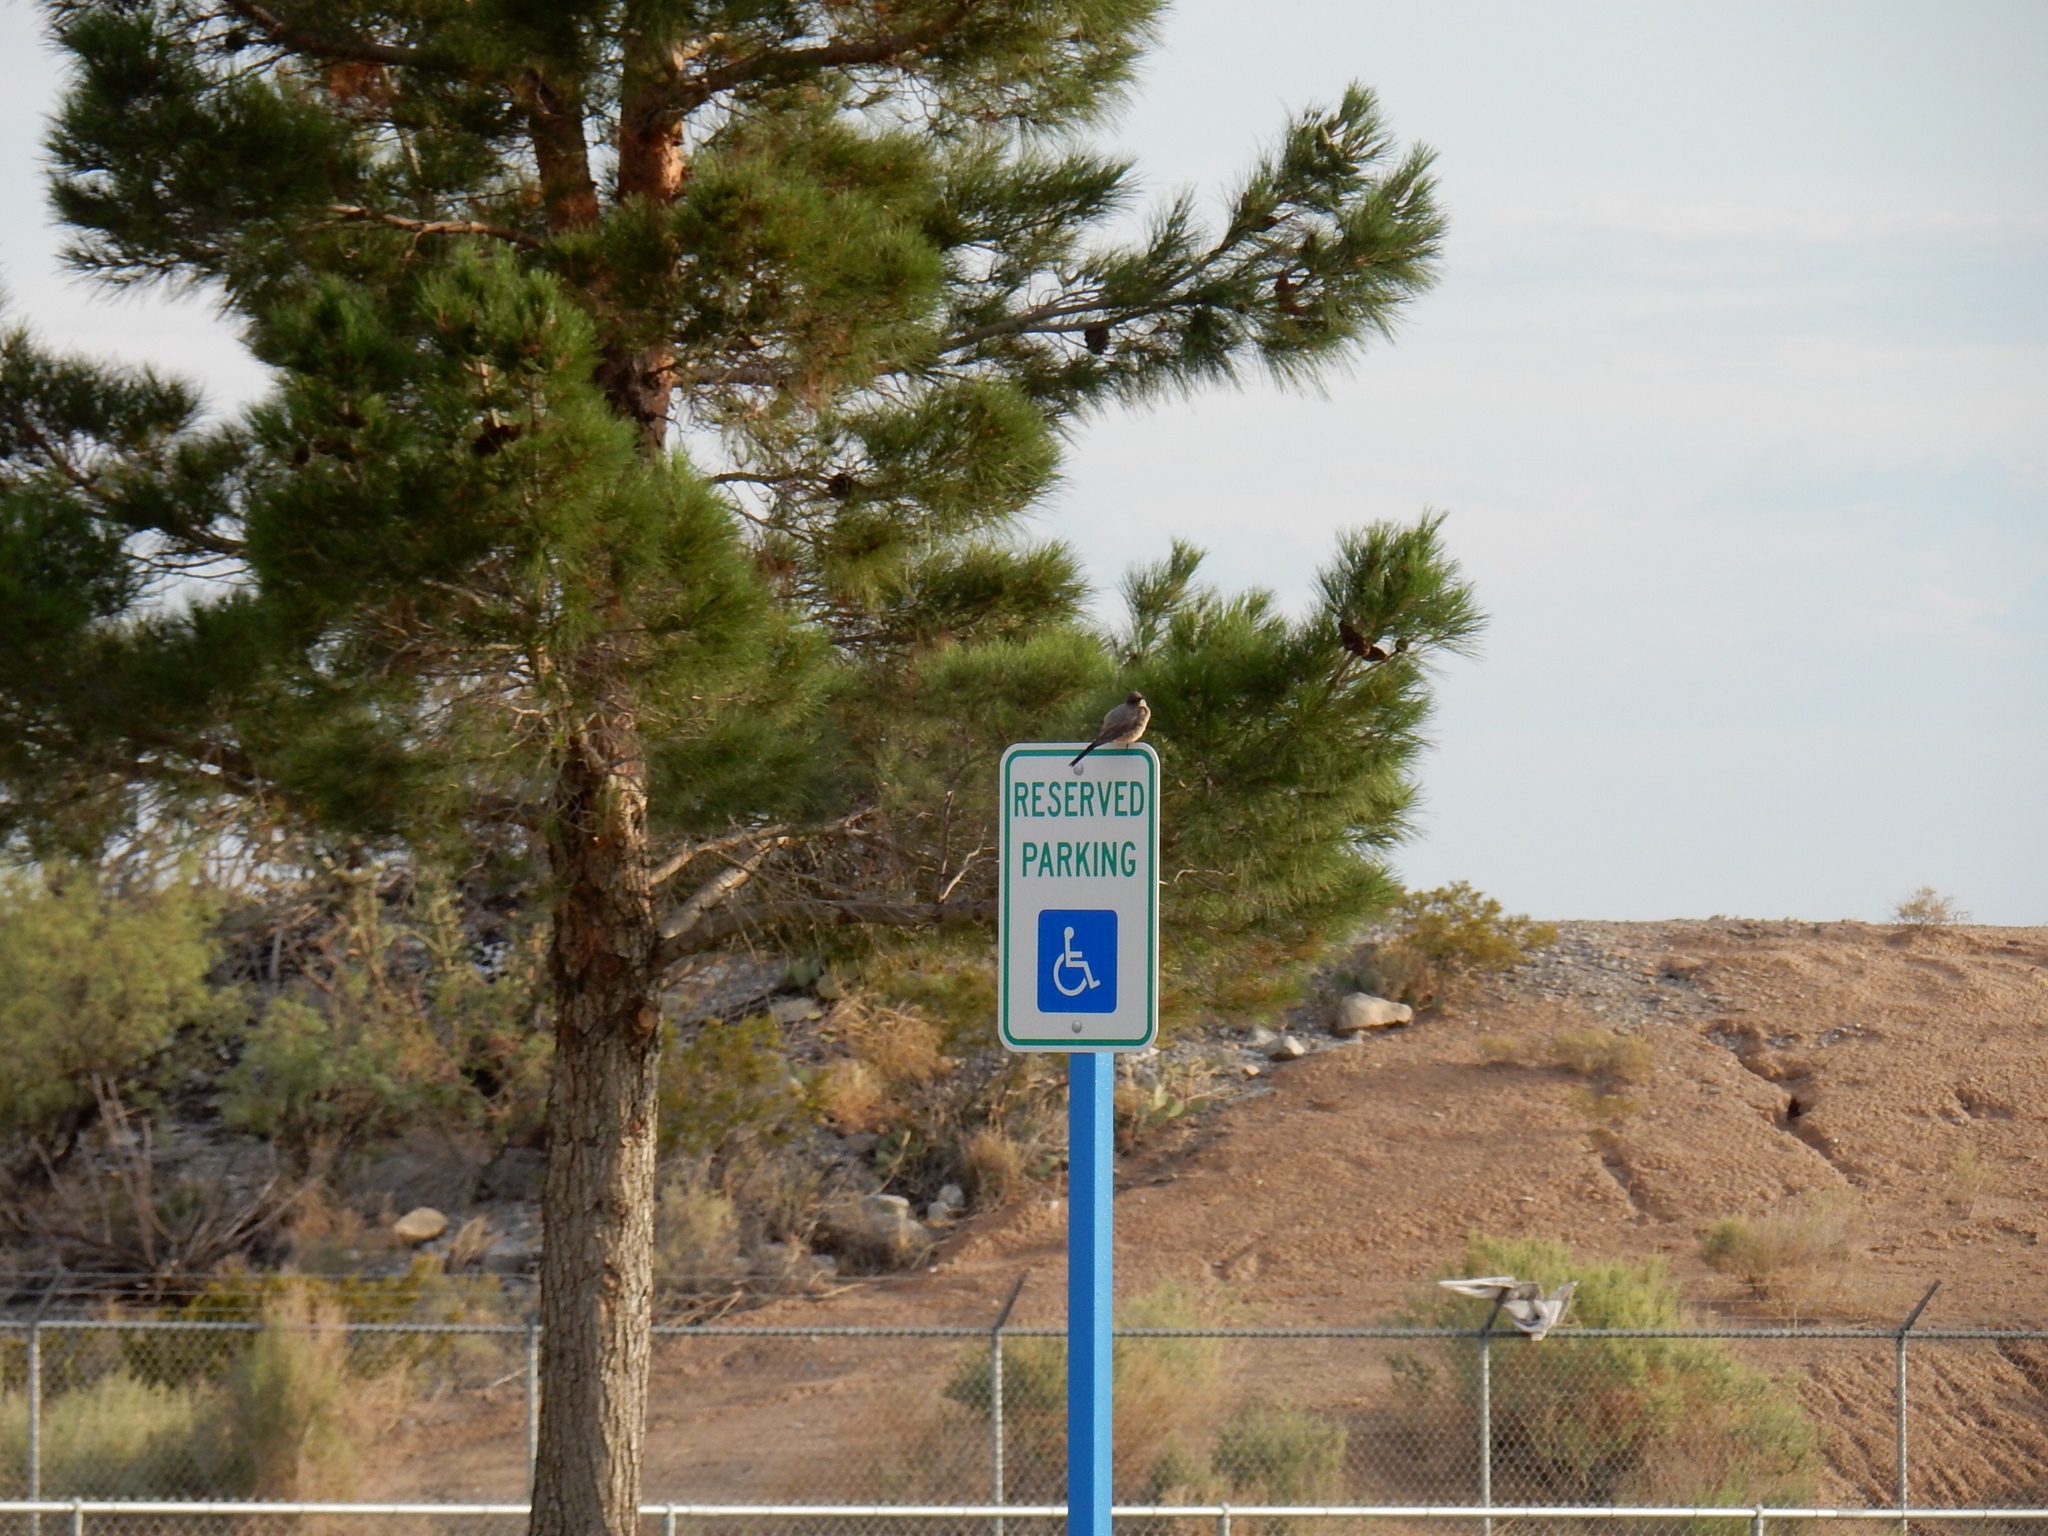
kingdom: Animalia
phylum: Chordata
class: Aves
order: Passeriformes
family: Tyrannidae
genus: Sayornis
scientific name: Sayornis saya
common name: Say's phoebe
